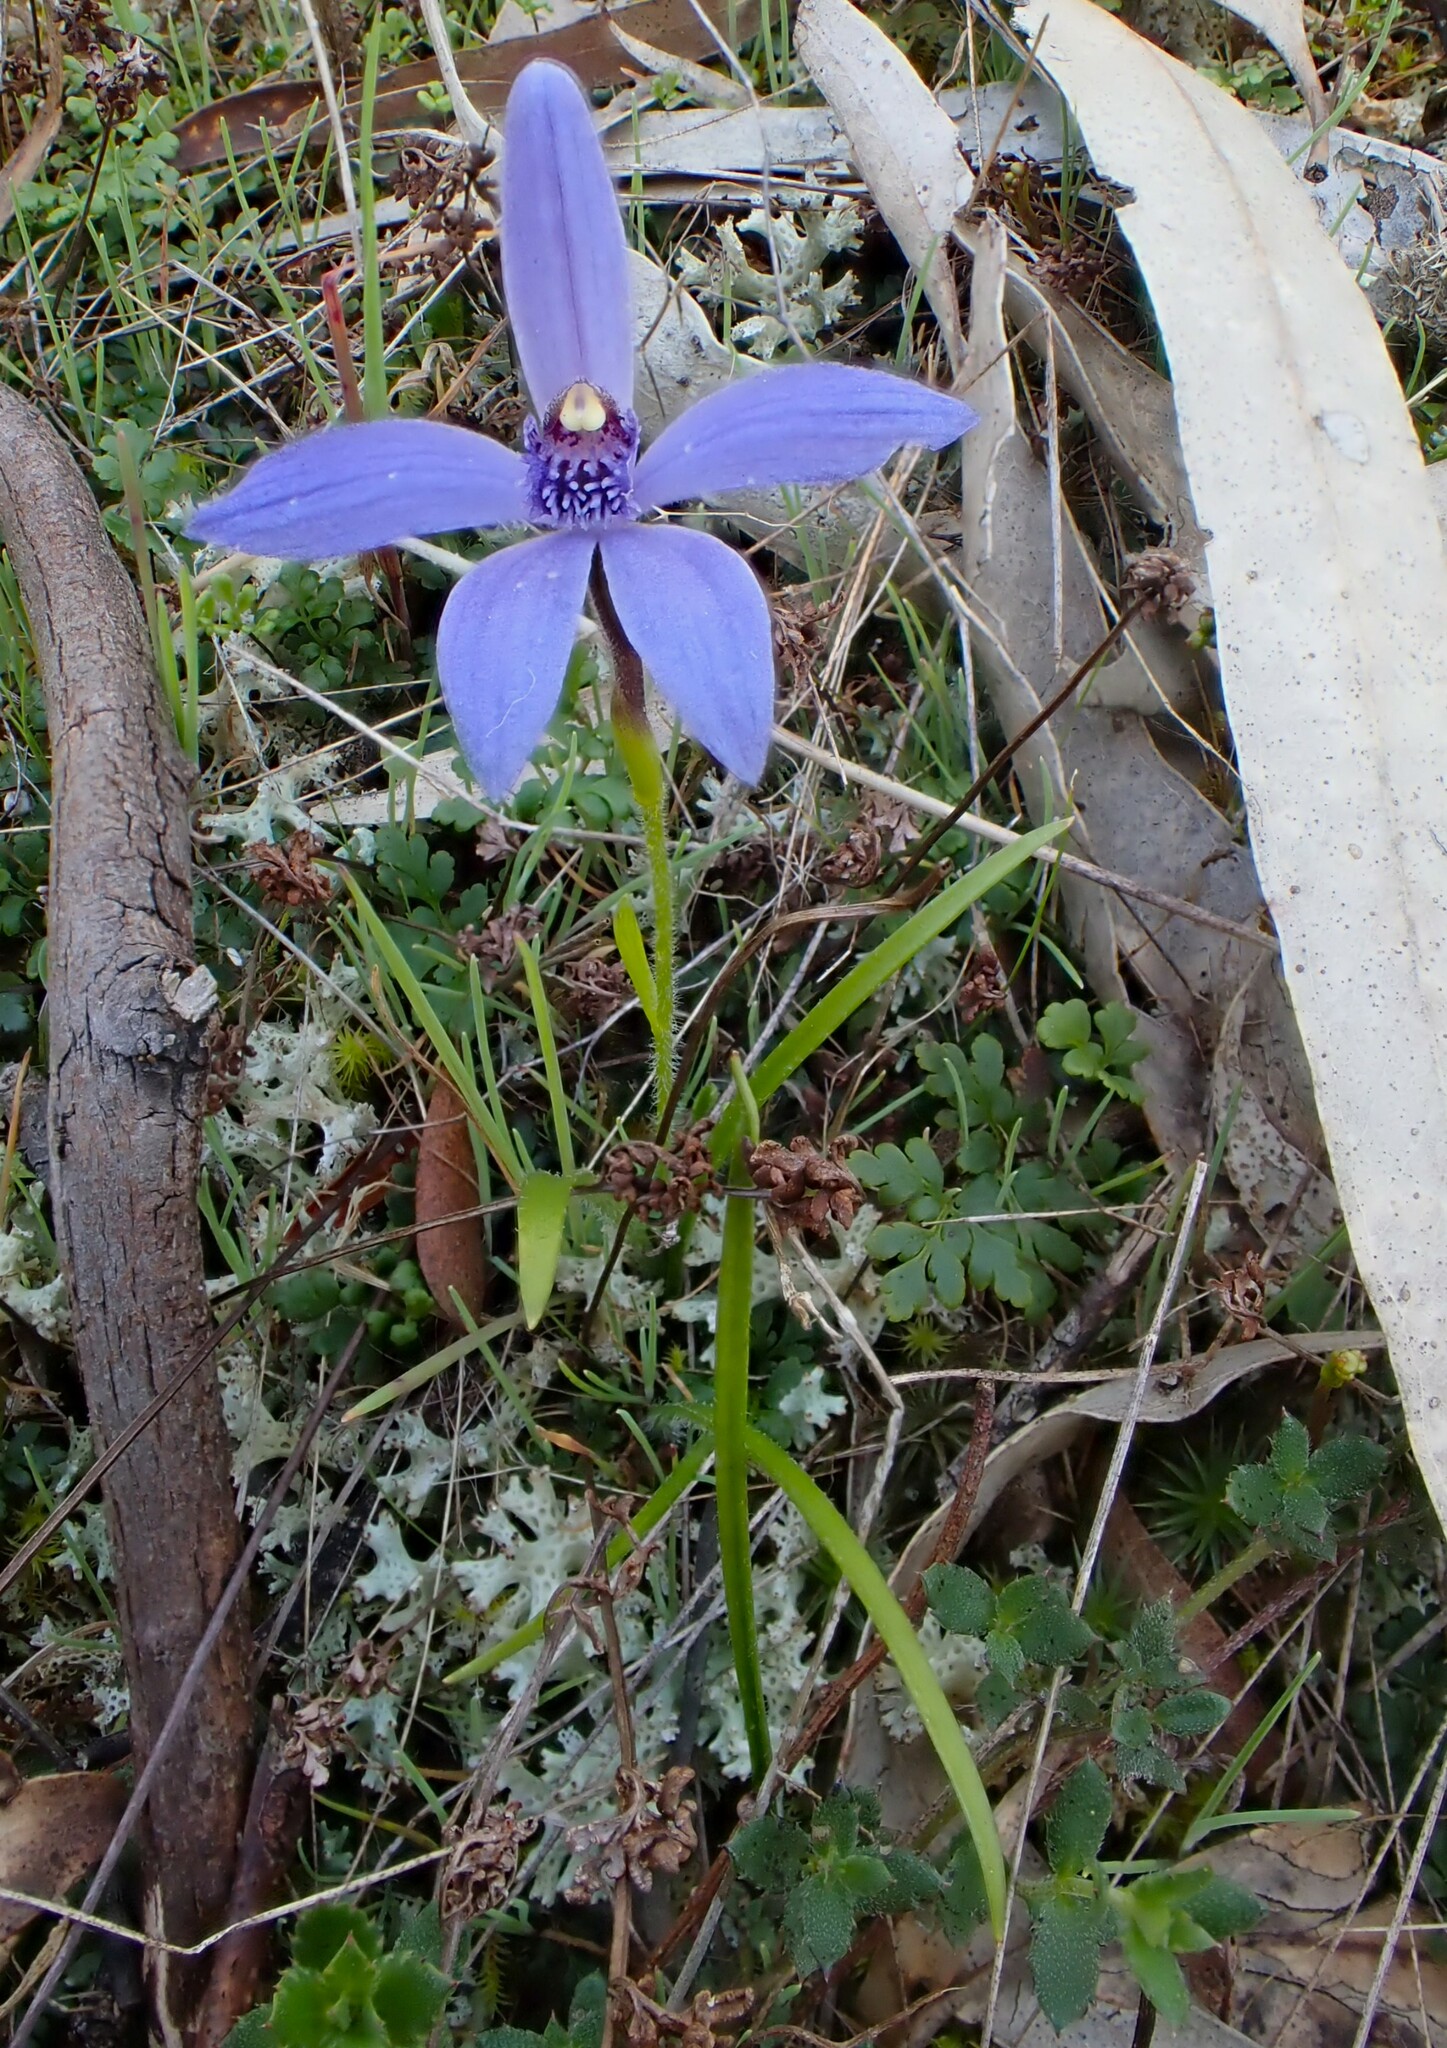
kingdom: Plantae
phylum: Tracheophyta
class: Liliopsida
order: Asparagales
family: Orchidaceae
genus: Pheladenia
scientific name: Pheladenia deformis
